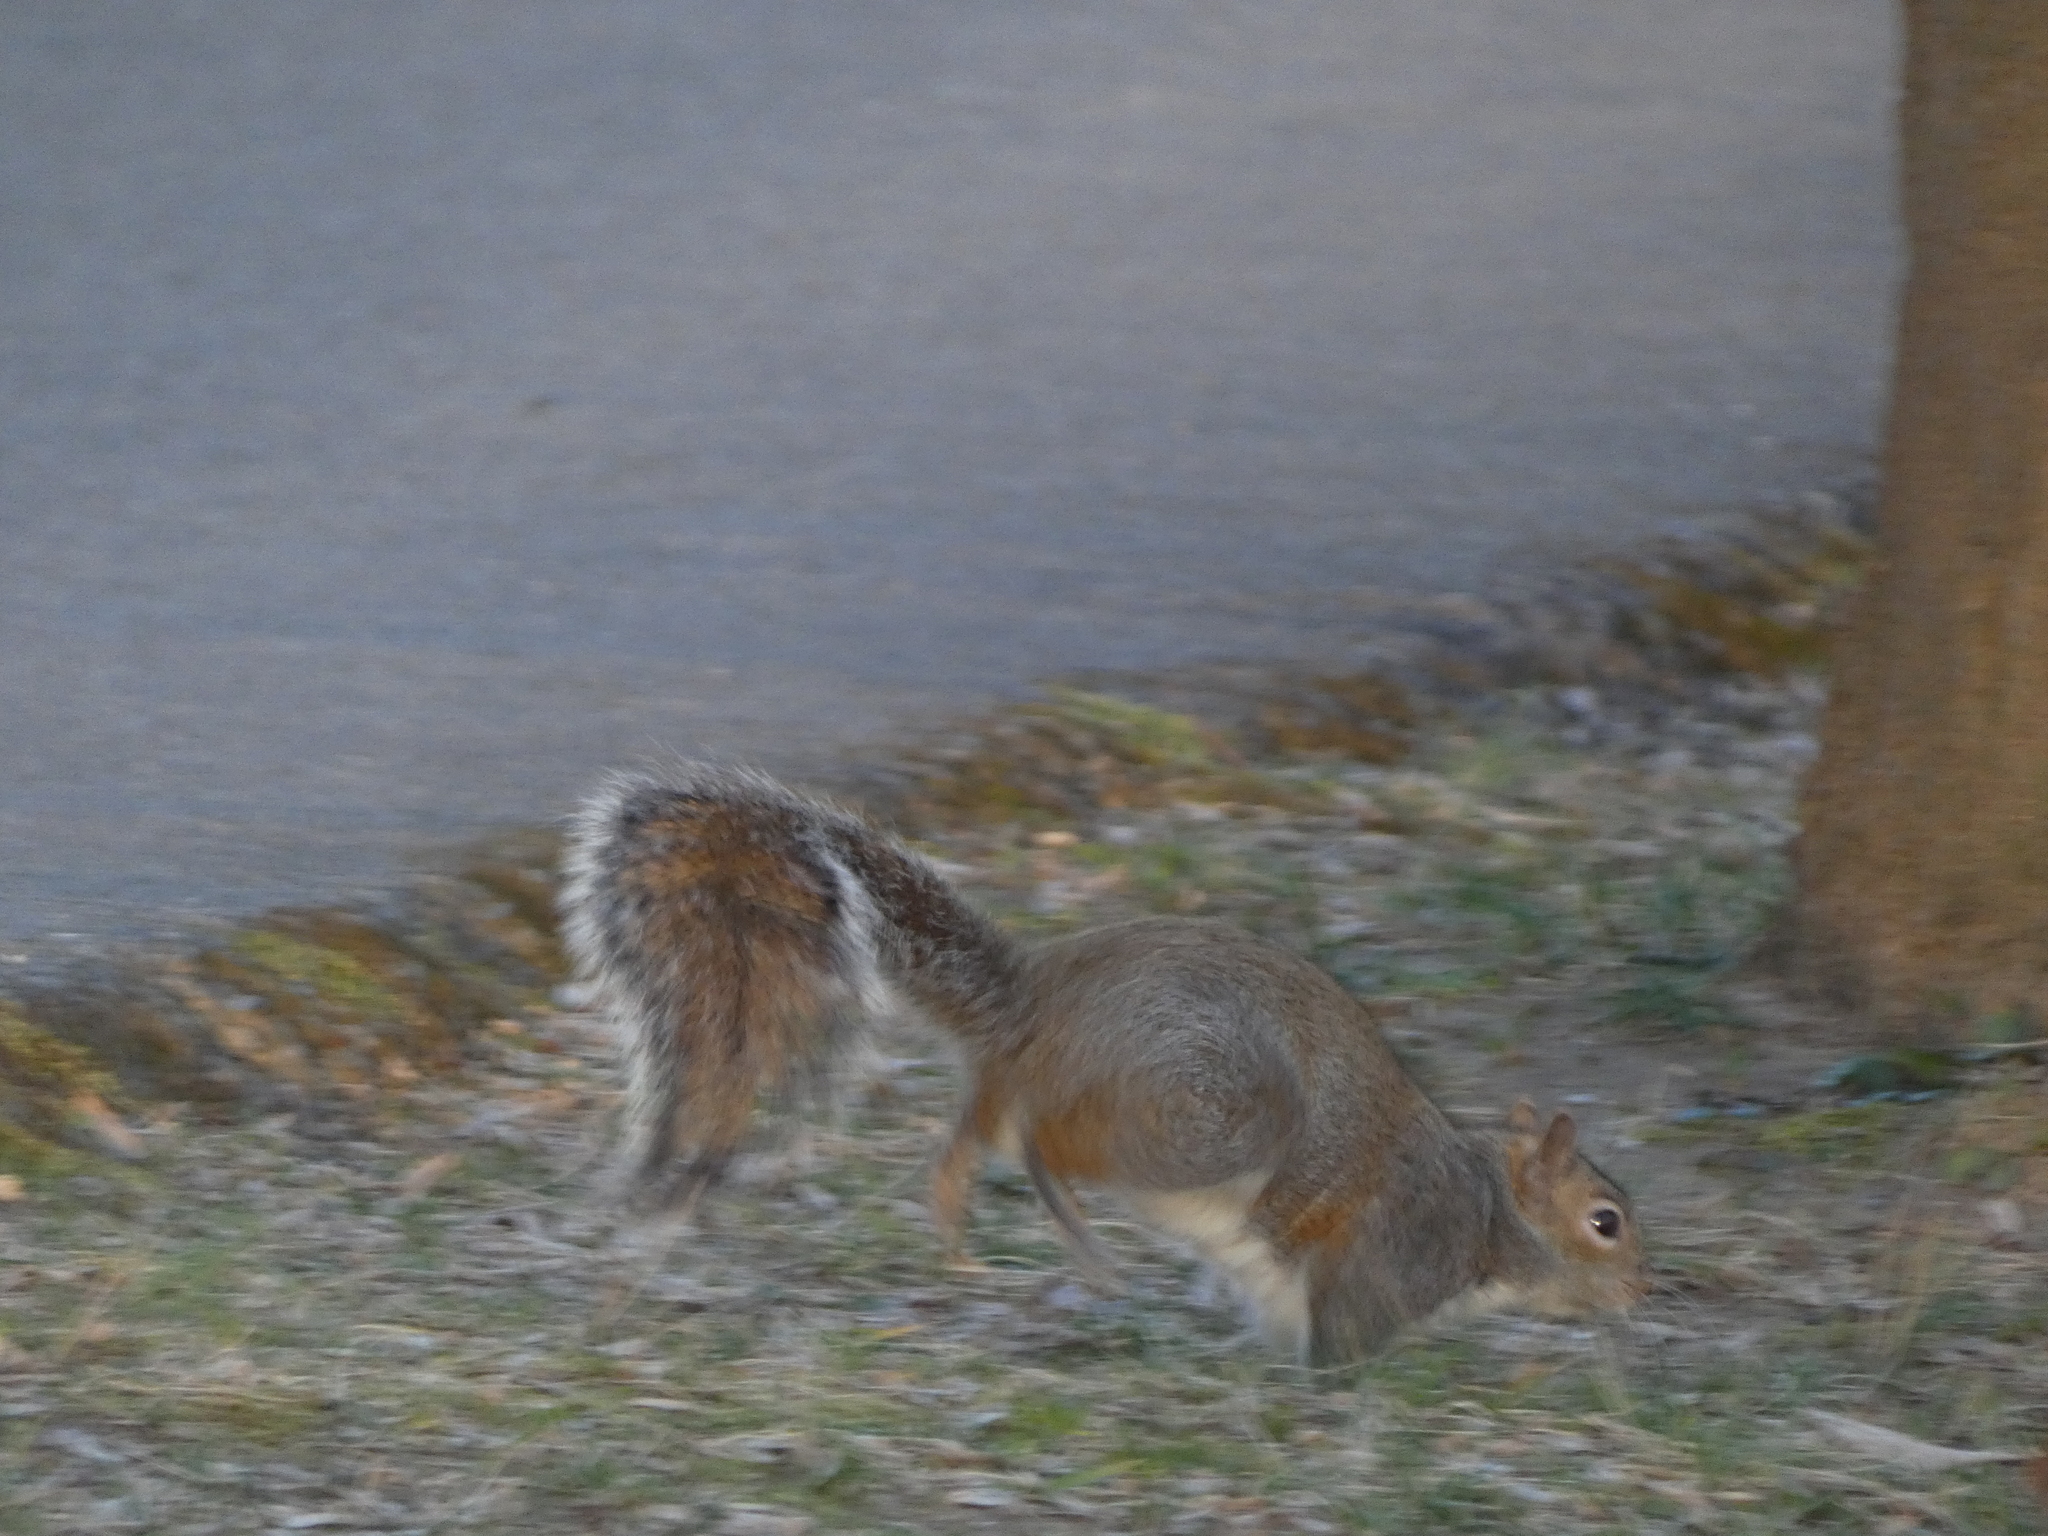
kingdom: Animalia
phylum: Chordata
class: Mammalia
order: Rodentia
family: Sciuridae
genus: Sciurus
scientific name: Sciurus carolinensis
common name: Eastern gray squirrel
